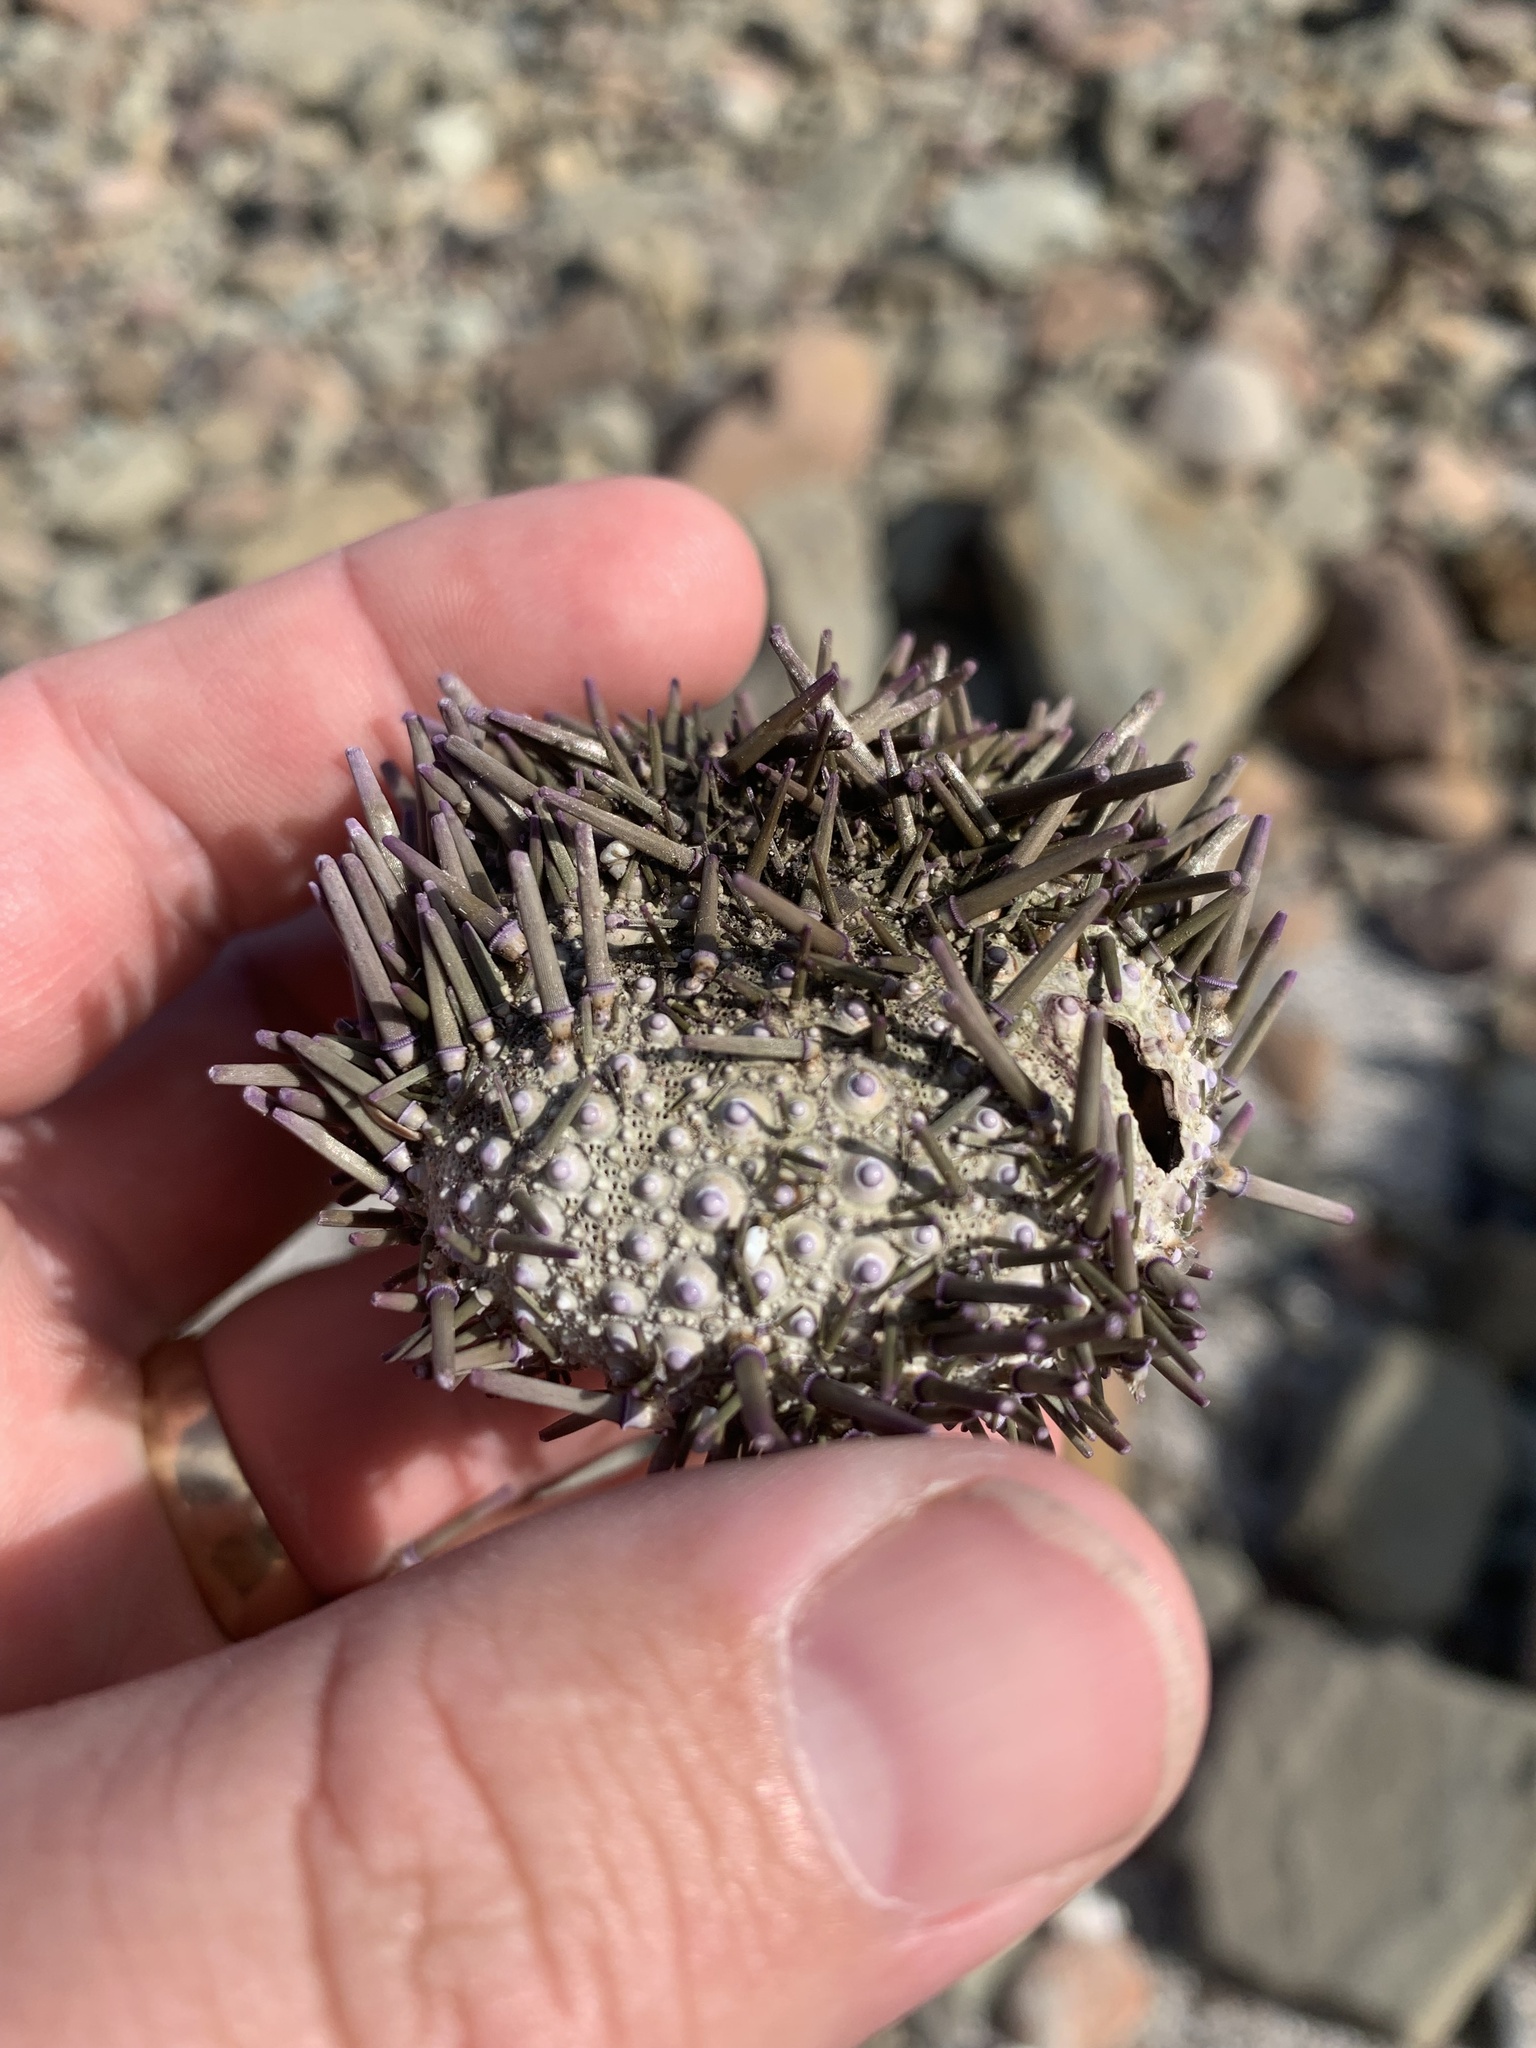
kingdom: Animalia
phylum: Echinodermata
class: Echinoidea
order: Camarodonta
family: Echinometridae
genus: Heliocidaris
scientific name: Heliocidaris erythrogramma
